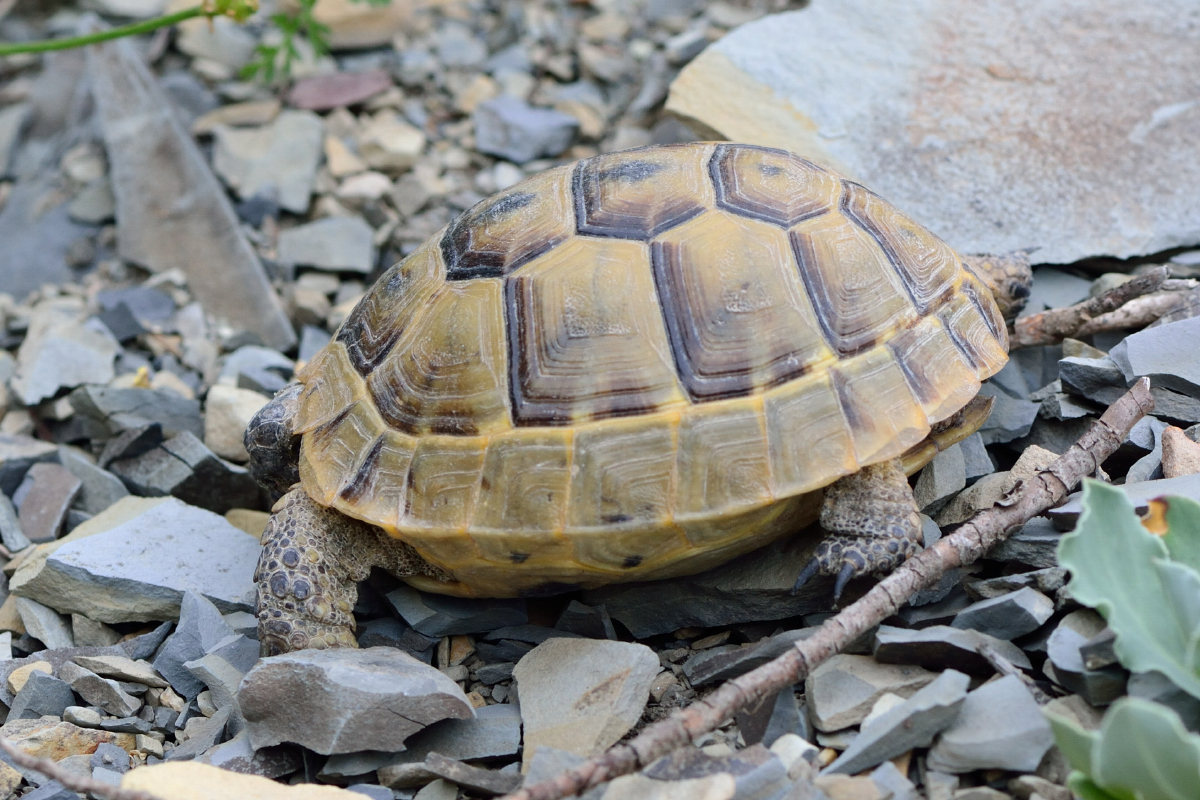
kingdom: Animalia
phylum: Chordata
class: Testudines
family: Testudinidae
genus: Testudo
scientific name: Testudo graeca
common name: Common tortoise
